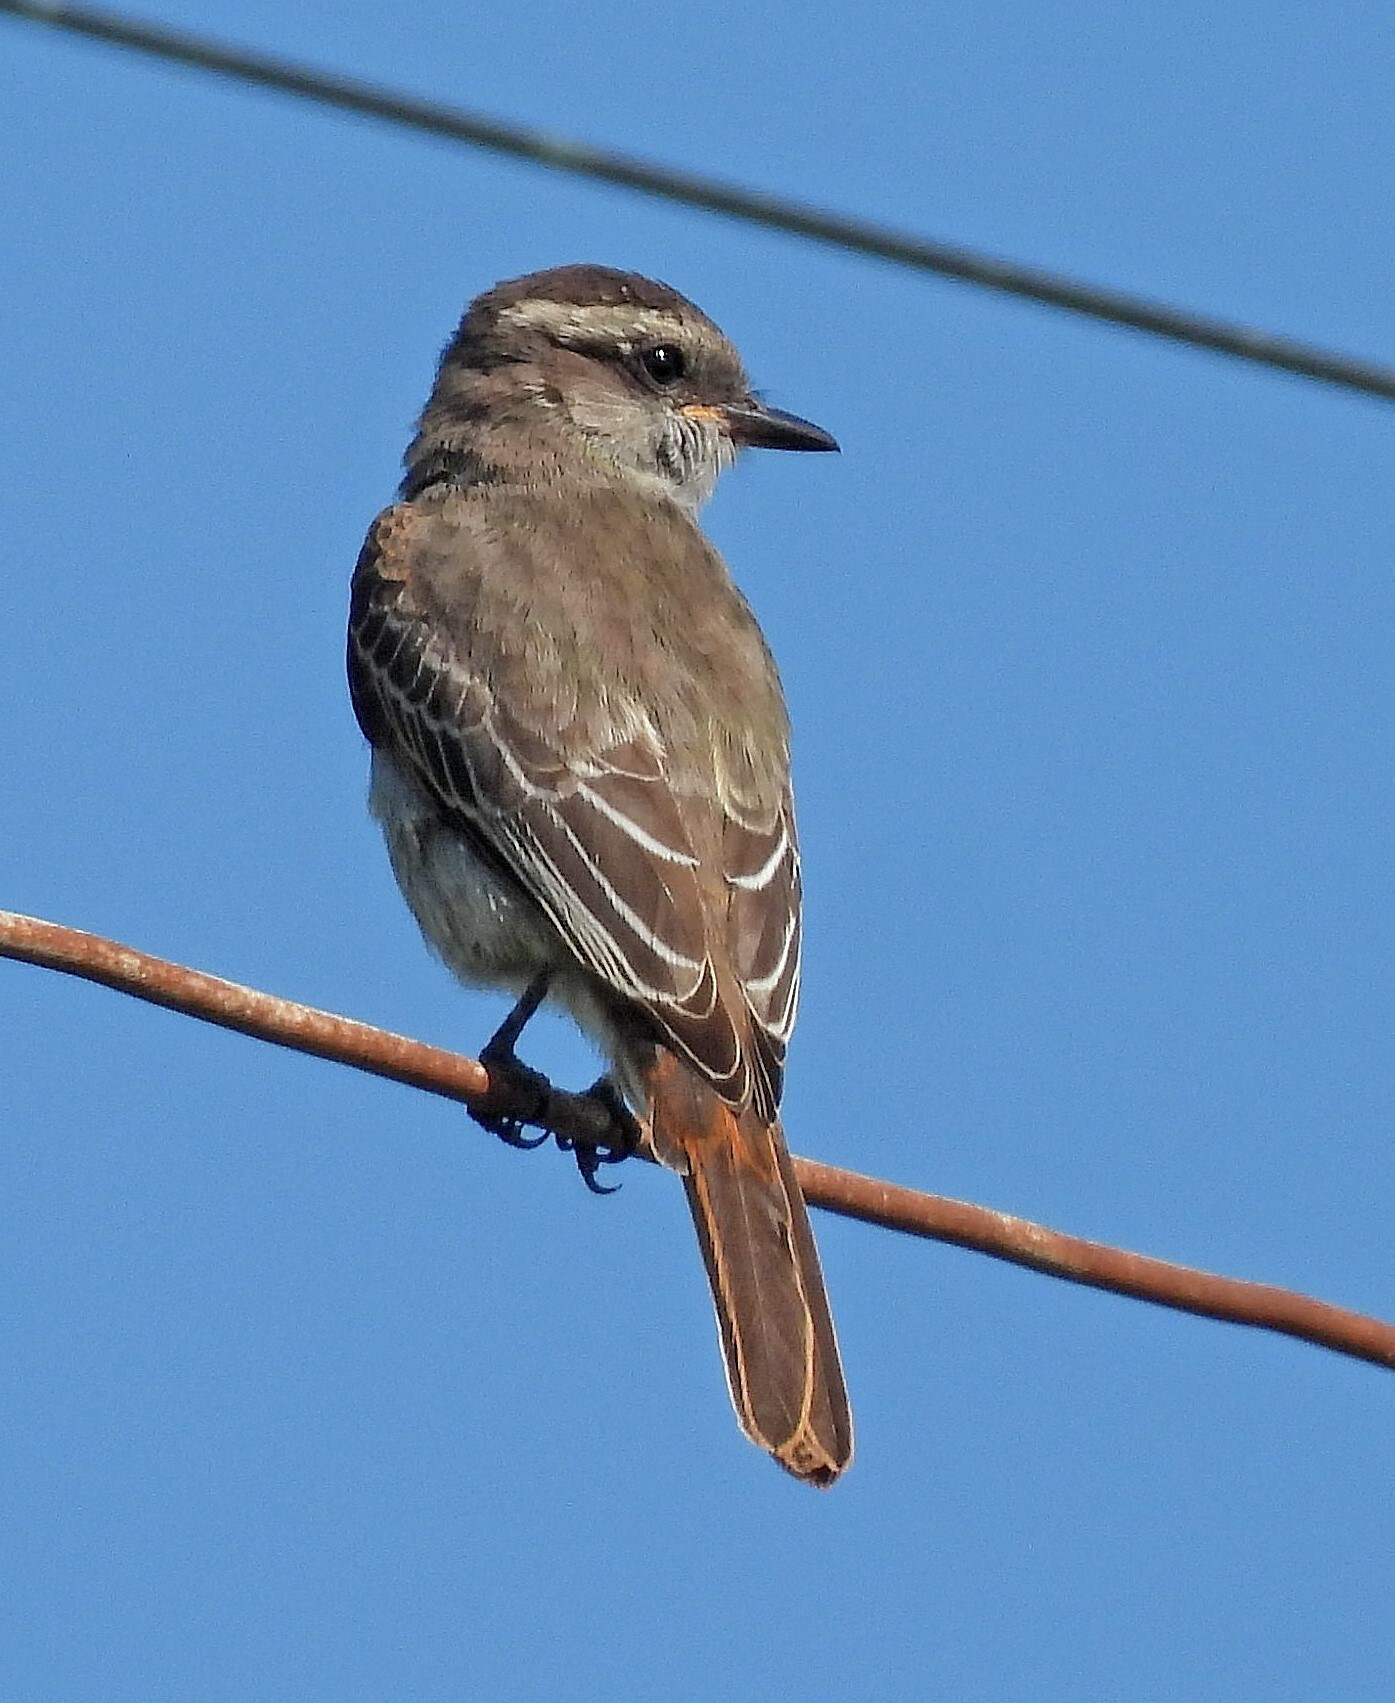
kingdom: Animalia
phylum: Chordata
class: Aves
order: Passeriformes
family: Tyrannidae
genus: Empidonomus
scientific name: Empidonomus aurantioatrocristatus
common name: Crowned slaty flycatcher
